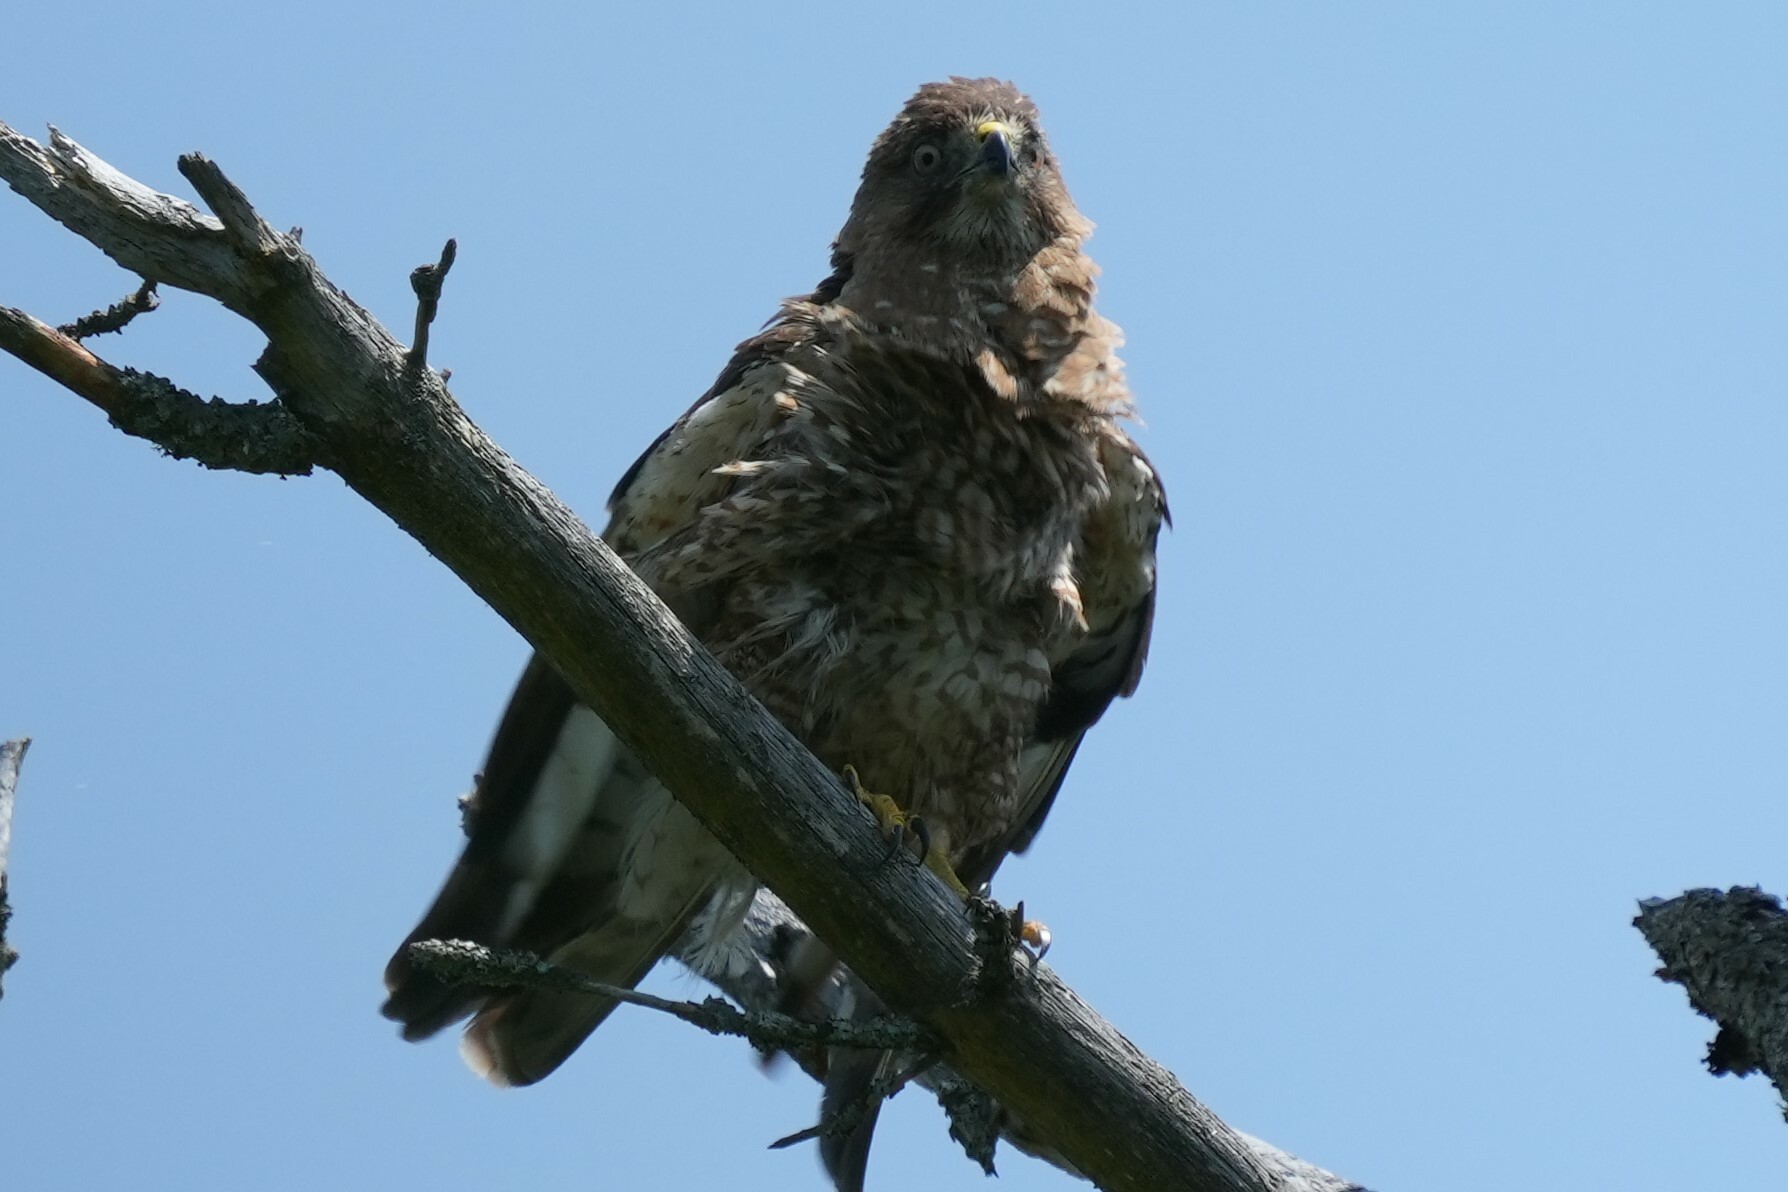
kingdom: Animalia
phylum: Chordata
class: Aves
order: Accipitriformes
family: Accipitridae
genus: Buteo
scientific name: Buteo platypterus
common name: Broad-winged hawk
